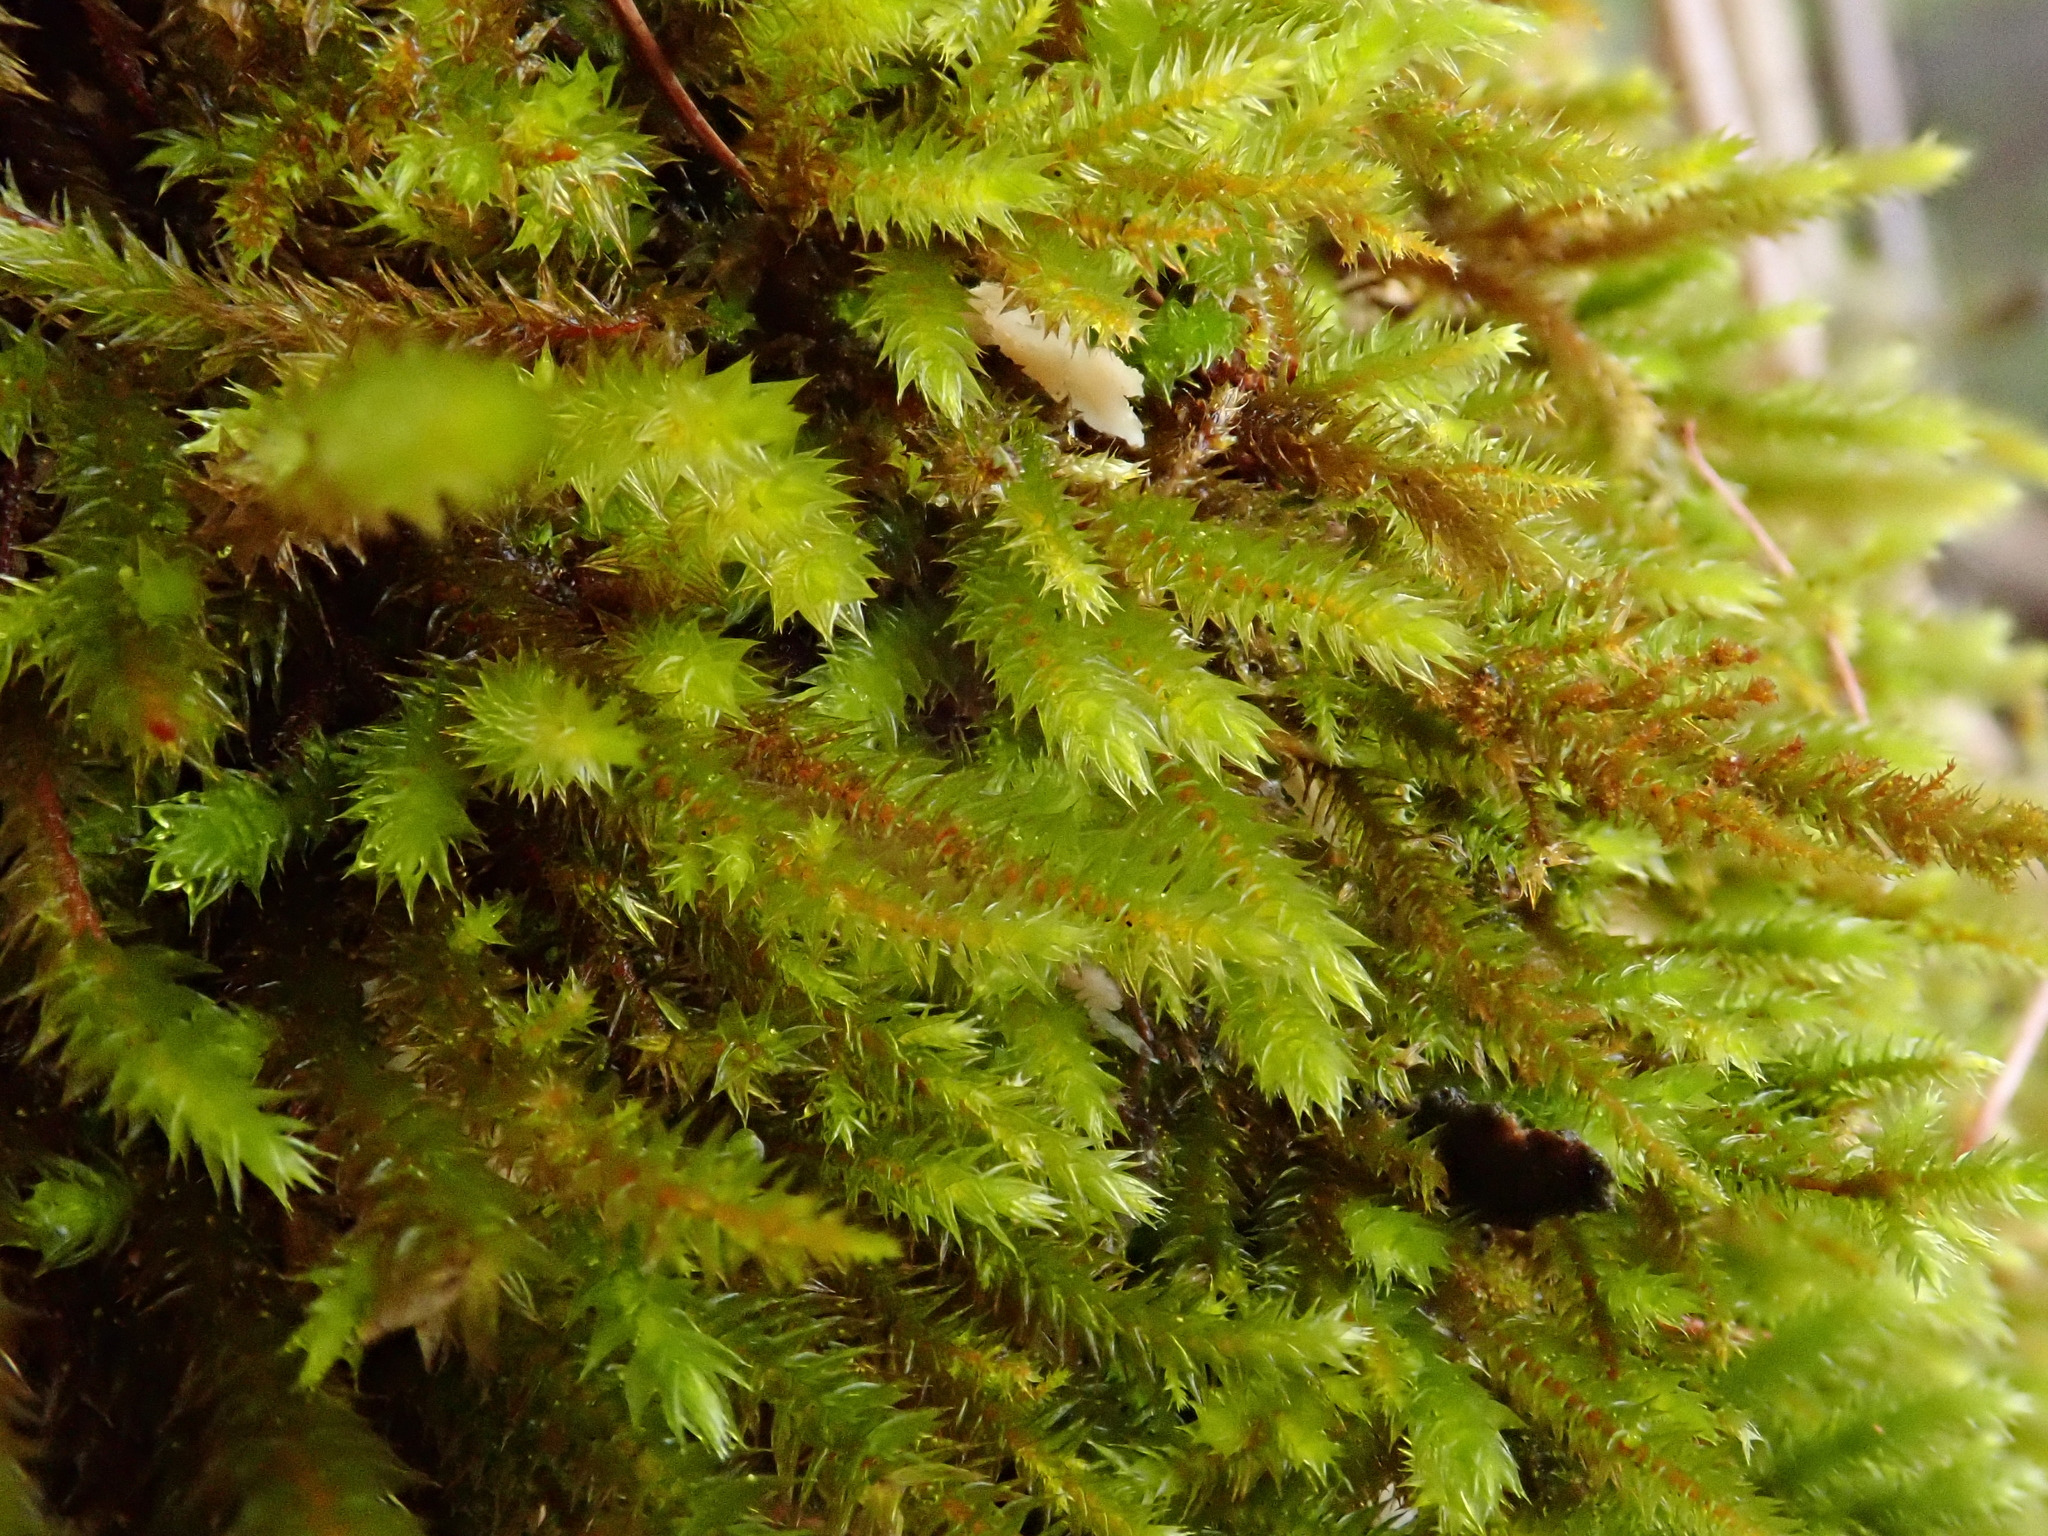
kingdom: Plantae
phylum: Bryophyta
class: Bryopsida
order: Hypnales
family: Leucodontaceae
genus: Leucodon
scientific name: Leucodon sciuroides
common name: Squirrel-tail moss
